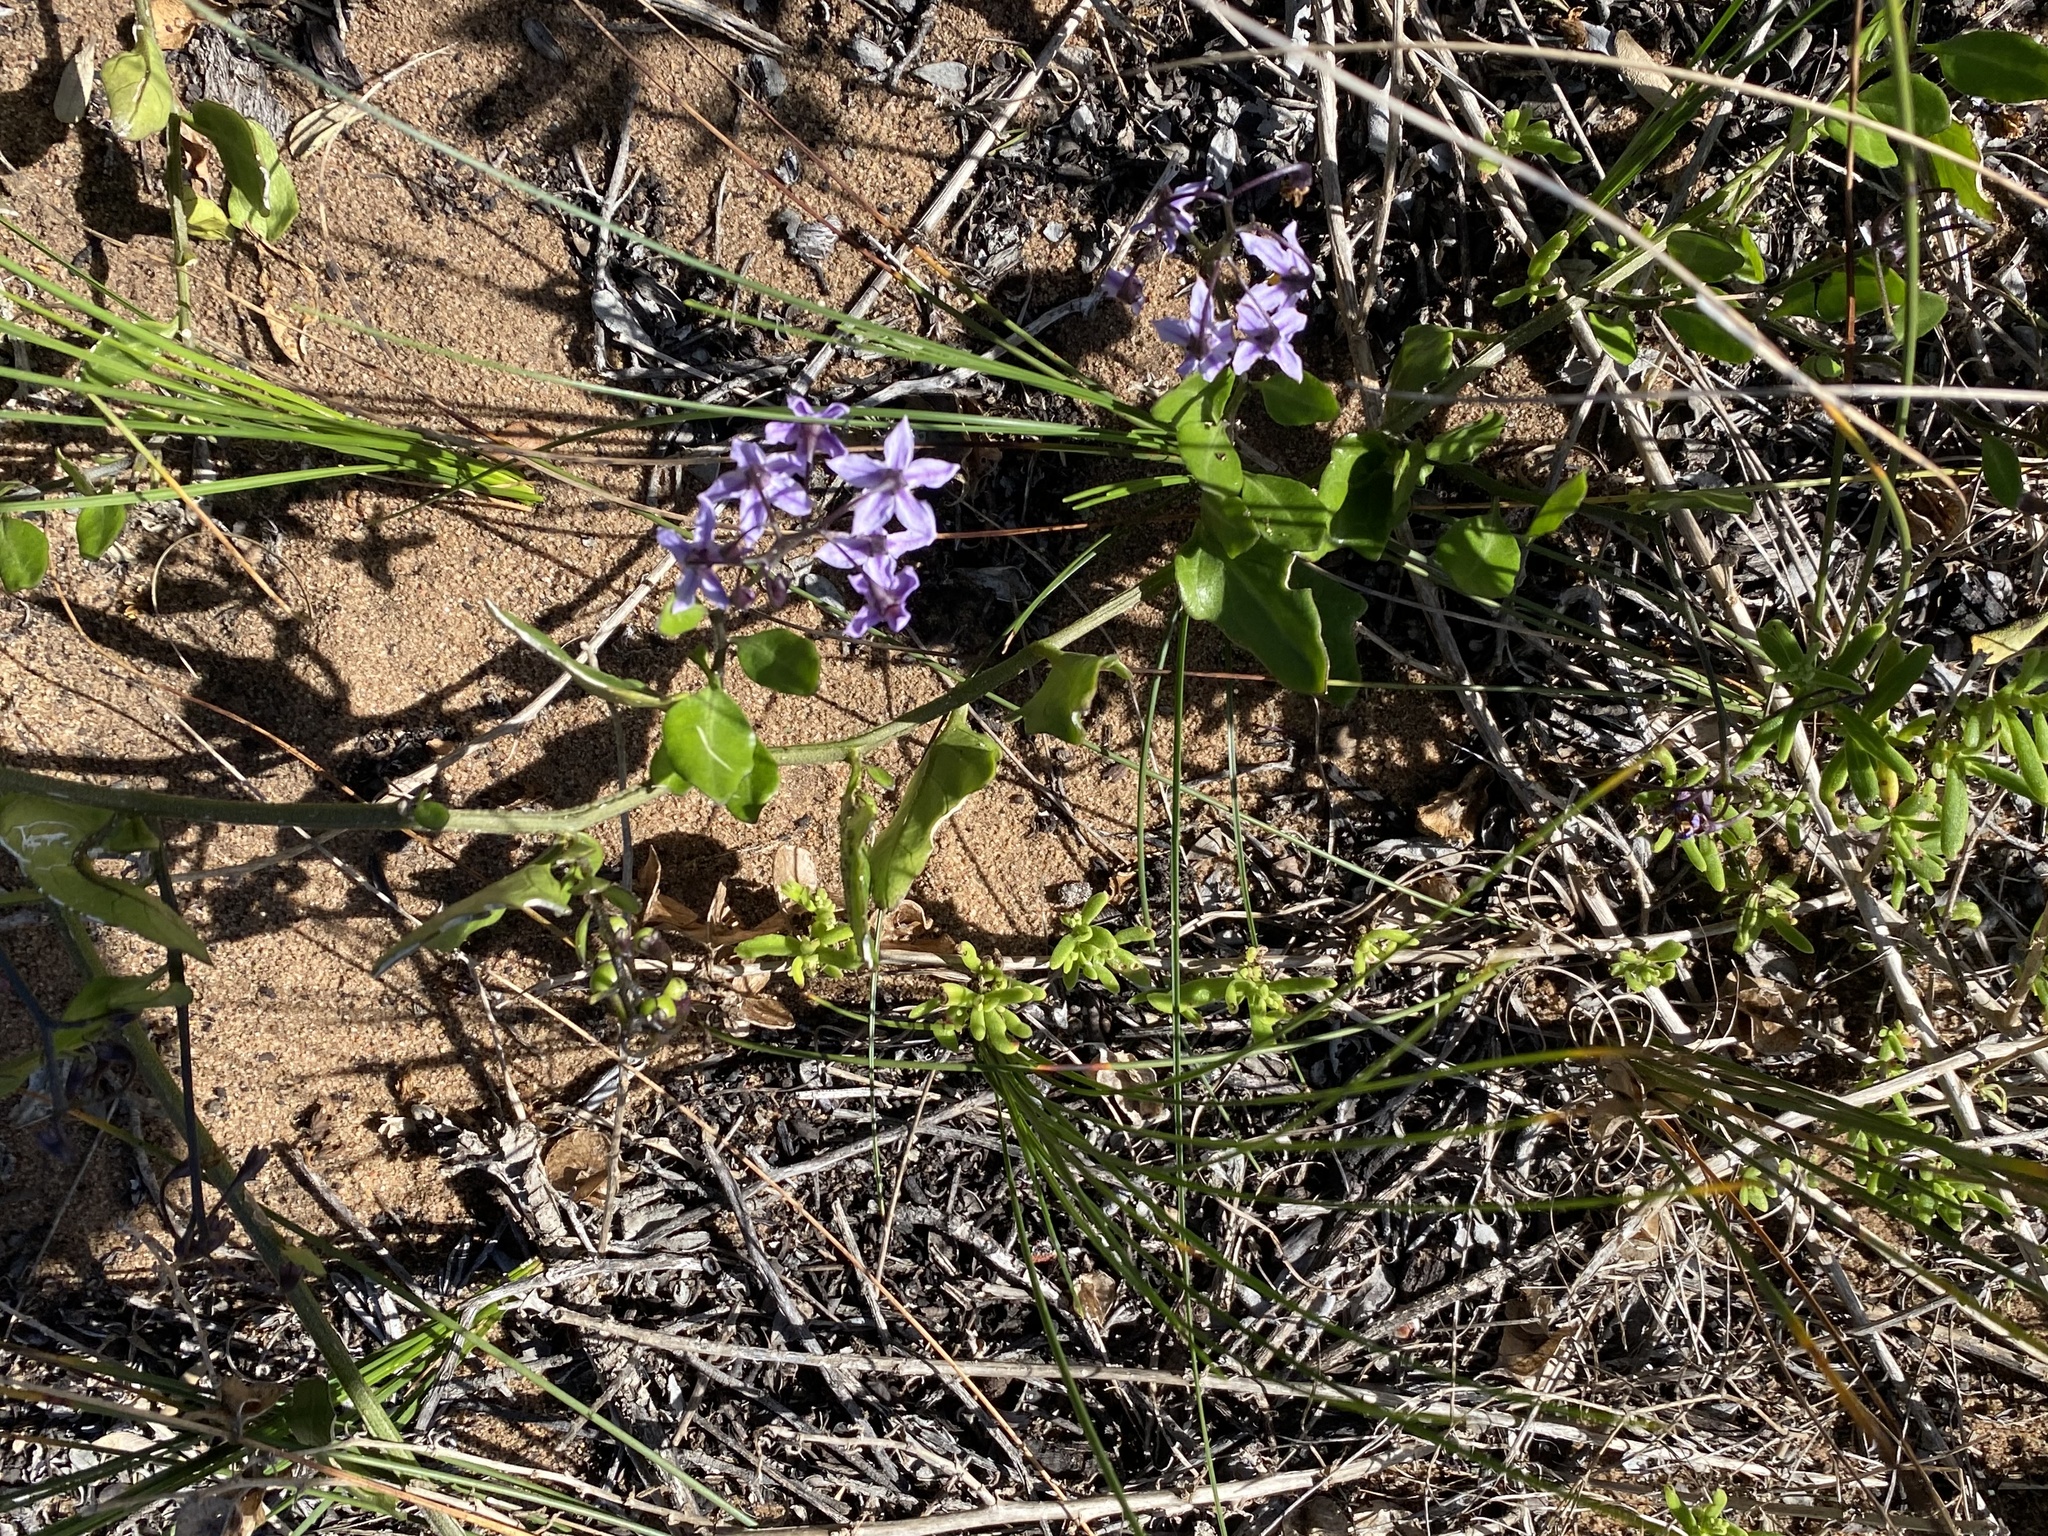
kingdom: Plantae
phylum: Tracheophyta
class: Magnoliopsida
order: Solanales
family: Solanaceae
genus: Solanum
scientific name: Solanum africanum
